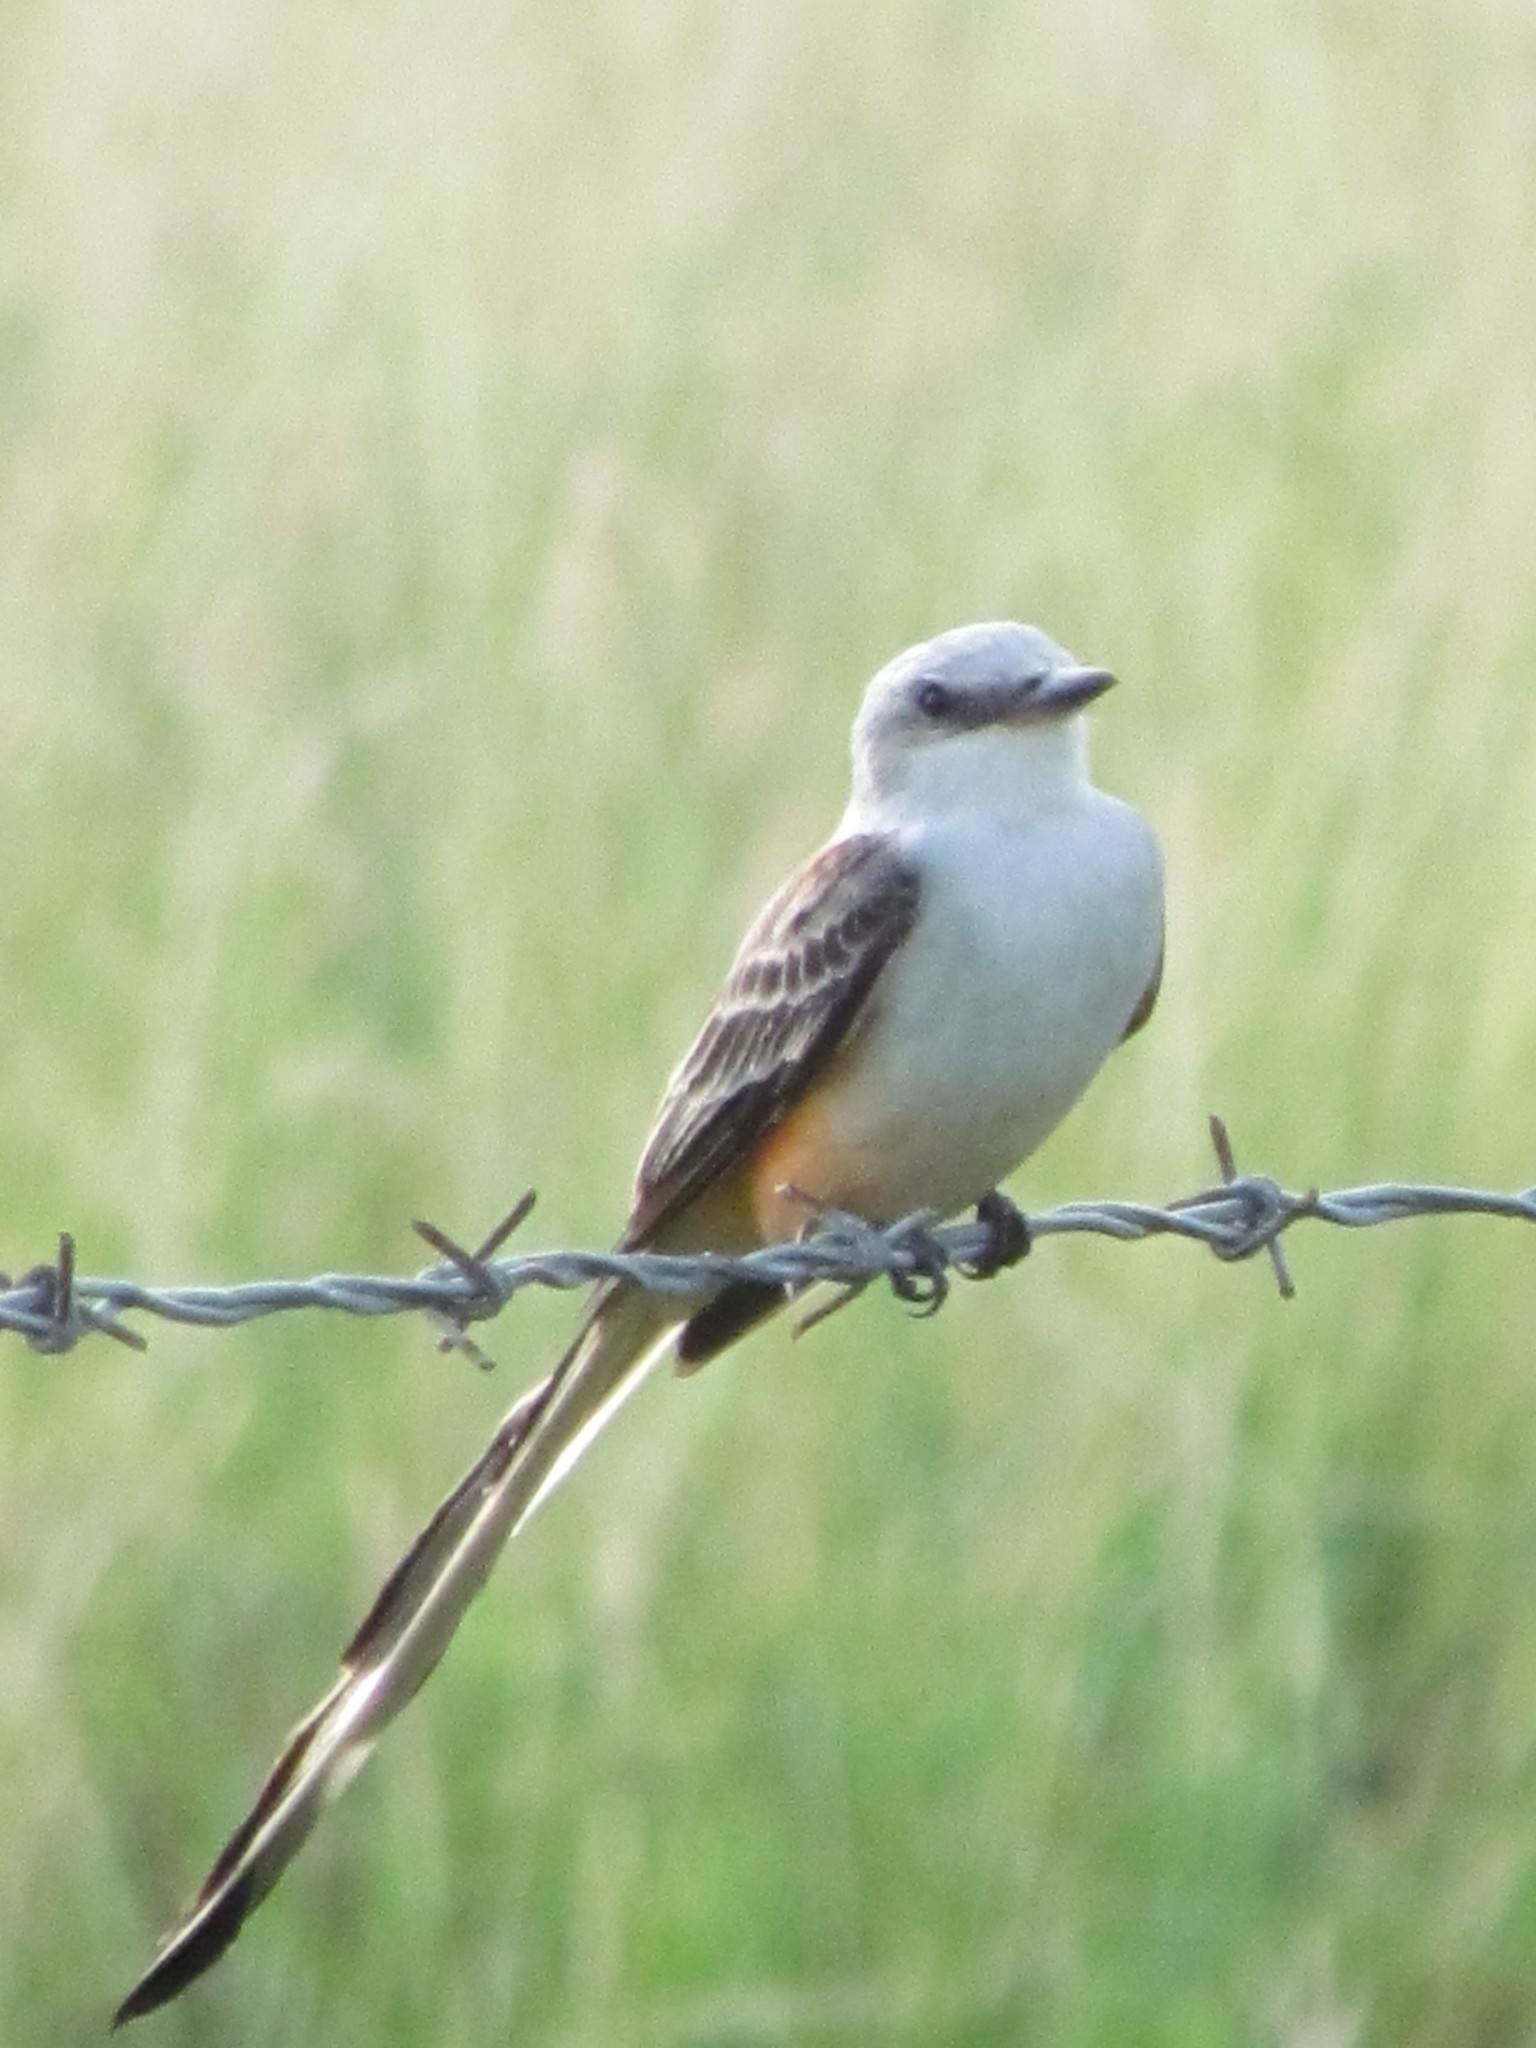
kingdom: Animalia
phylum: Chordata
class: Aves
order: Passeriformes
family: Tyrannidae
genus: Tyrannus
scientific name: Tyrannus forficatus
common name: Scissor-tailed flycatcher
